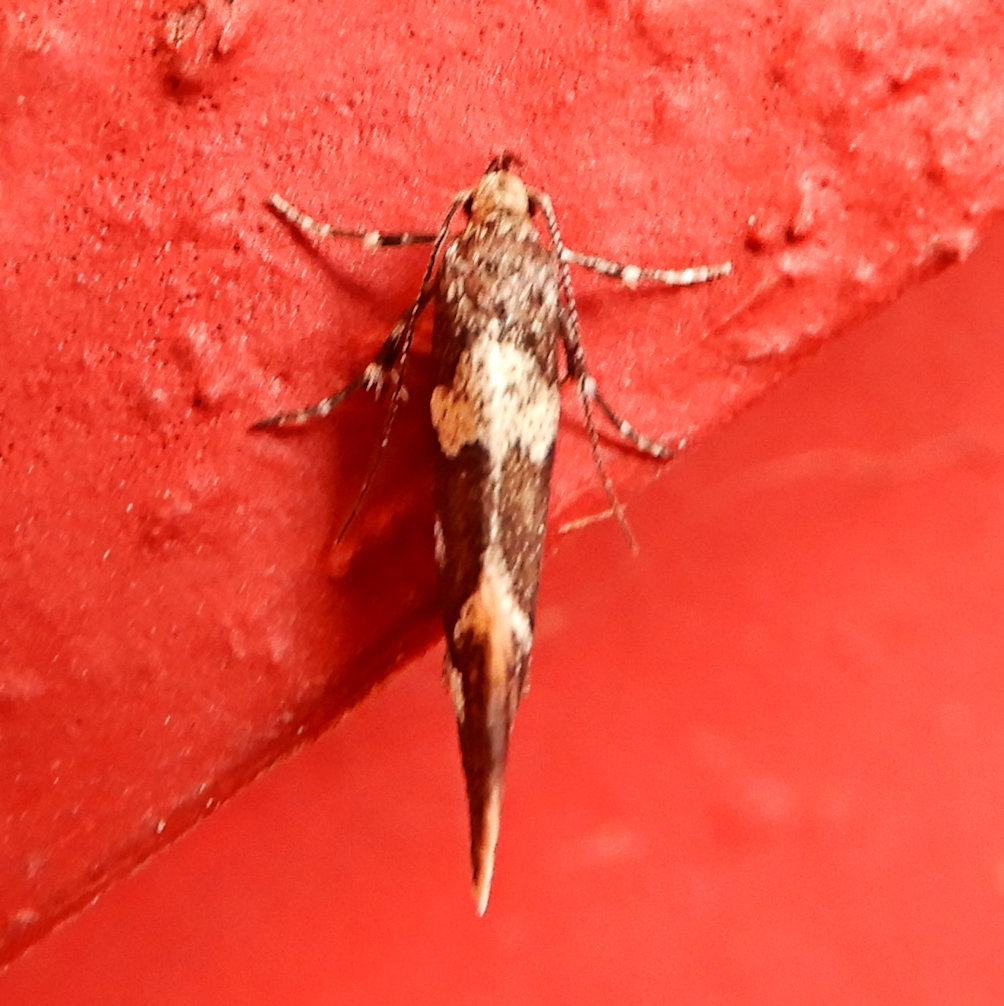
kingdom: Animalia
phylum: Arthropoda
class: Insecta
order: Lepidoptera
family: Oecophoridae
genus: Brymblia
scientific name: Brymblia quadrimaculella
